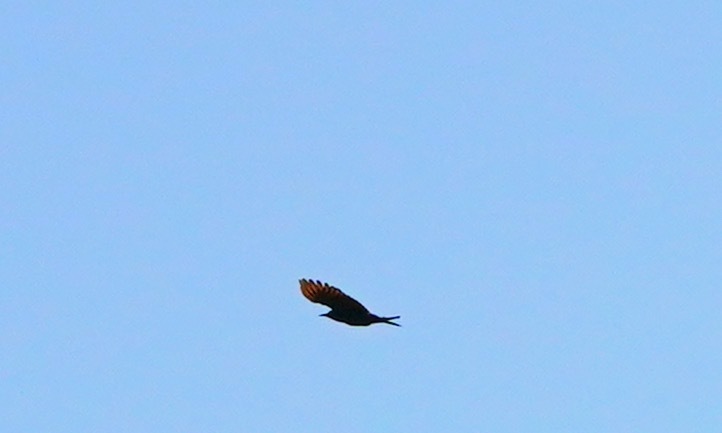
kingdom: Animalia
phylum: Chordata
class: Aves
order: Piciformes
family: Picidae
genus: Colaptes
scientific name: Colaptes auratus
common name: Northern flicker
